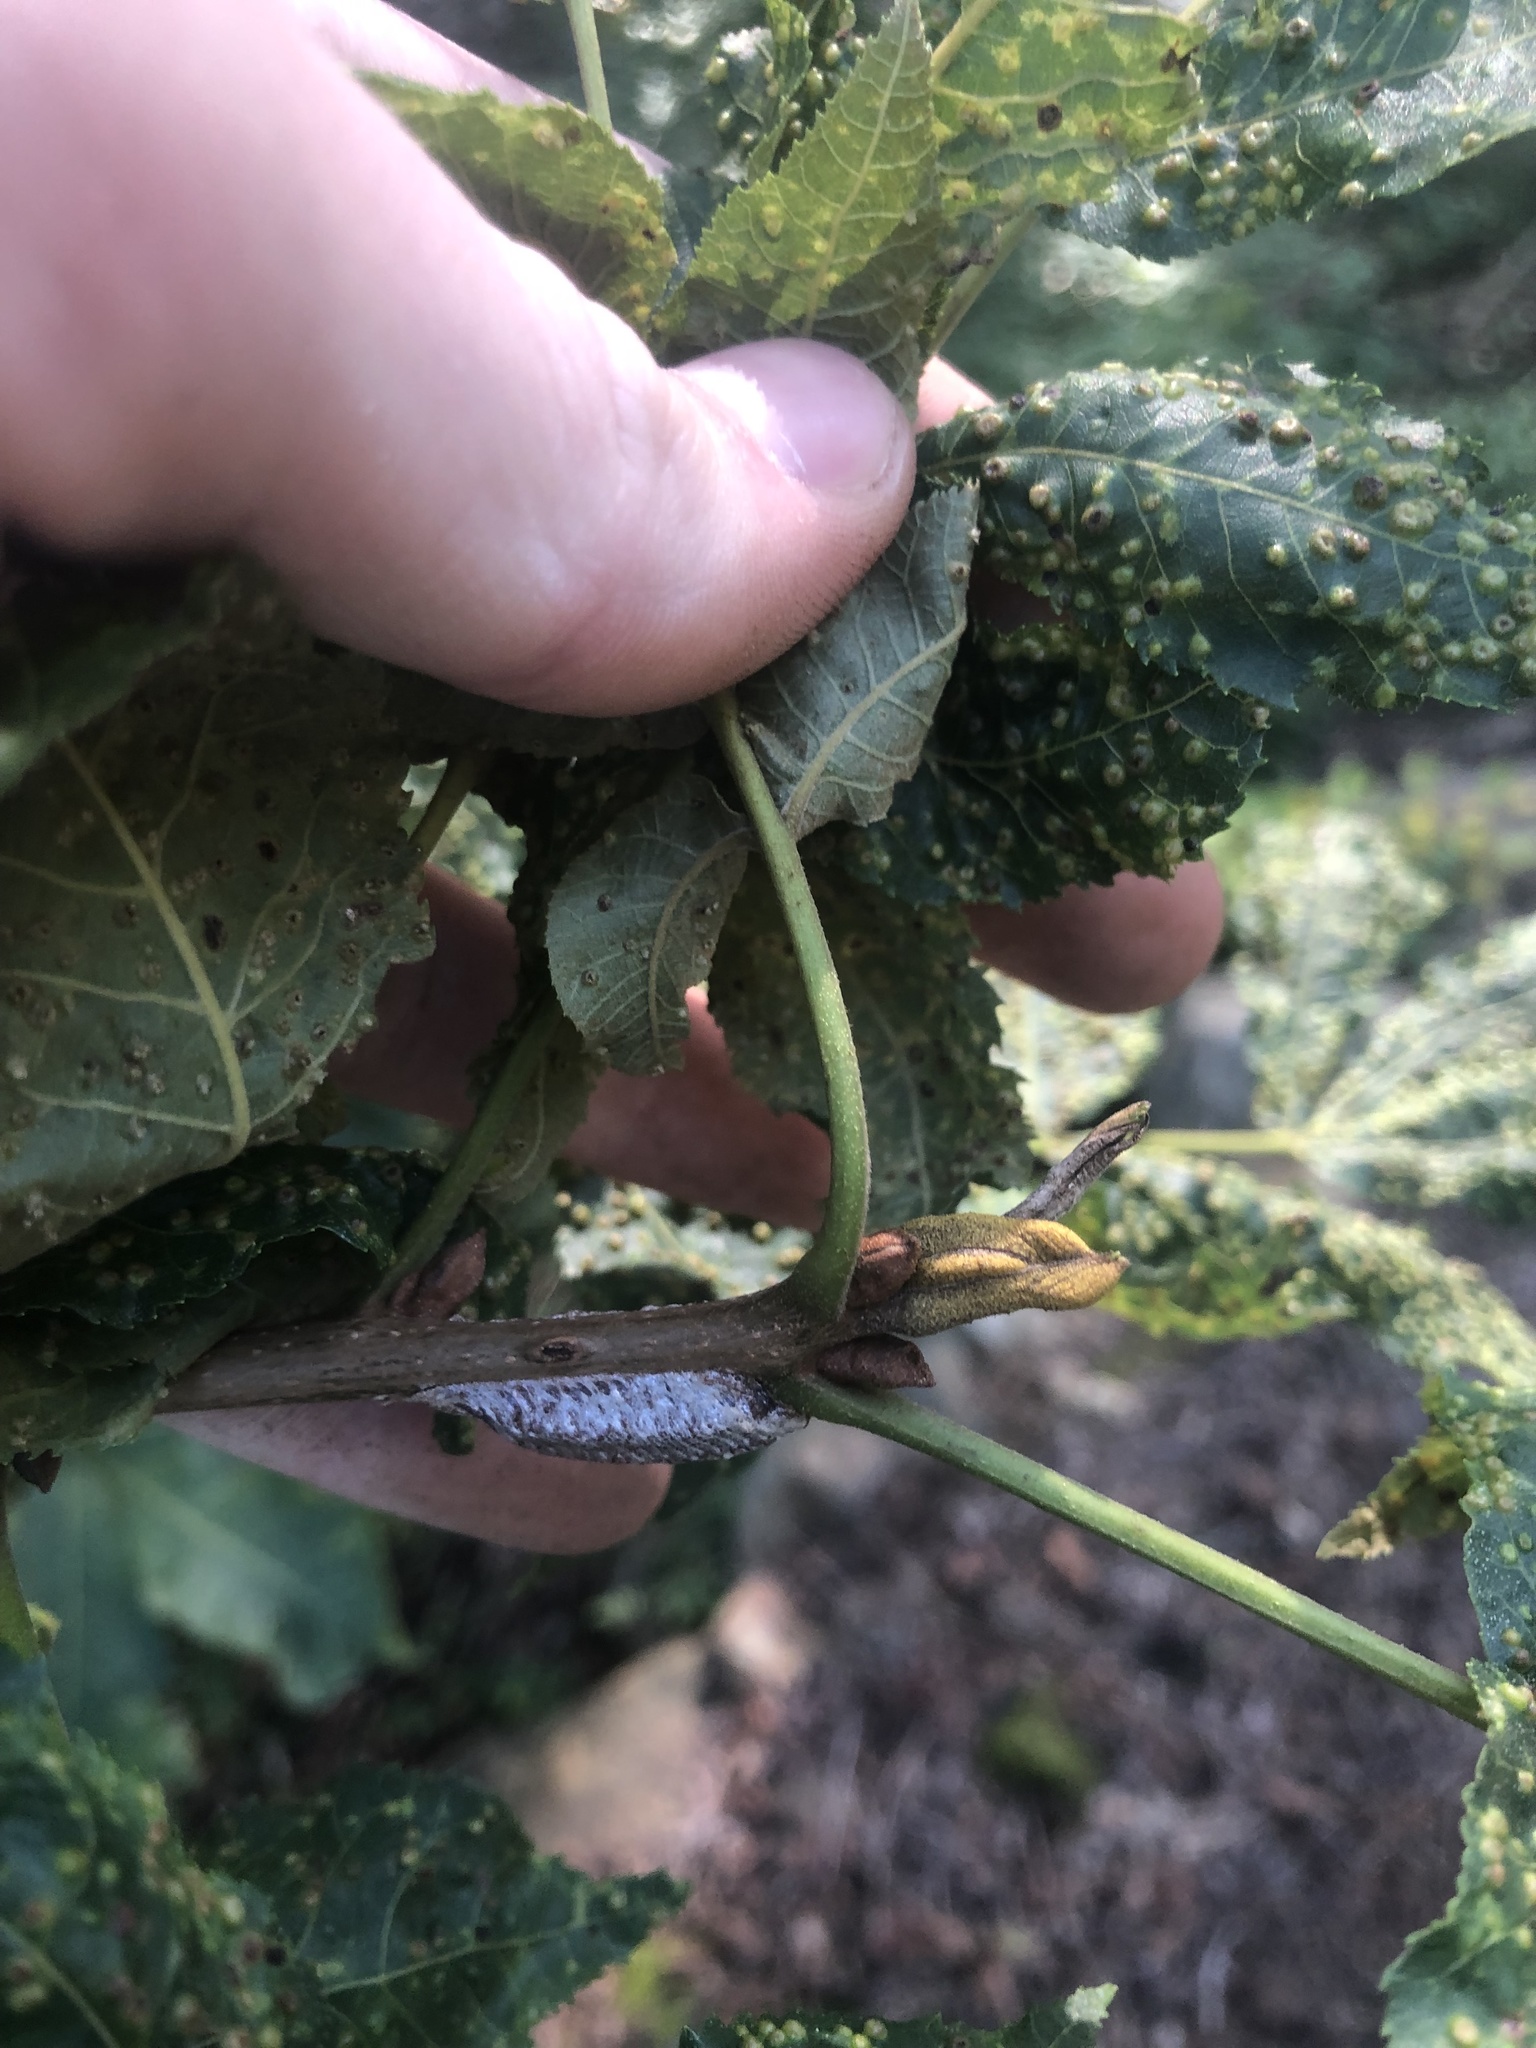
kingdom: Plantae
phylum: Tracheophyta
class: Magnoliopsida
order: Fagales
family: Juglandaceae
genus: Carya
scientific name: Carya cordiformis
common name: Bitternut hickory
